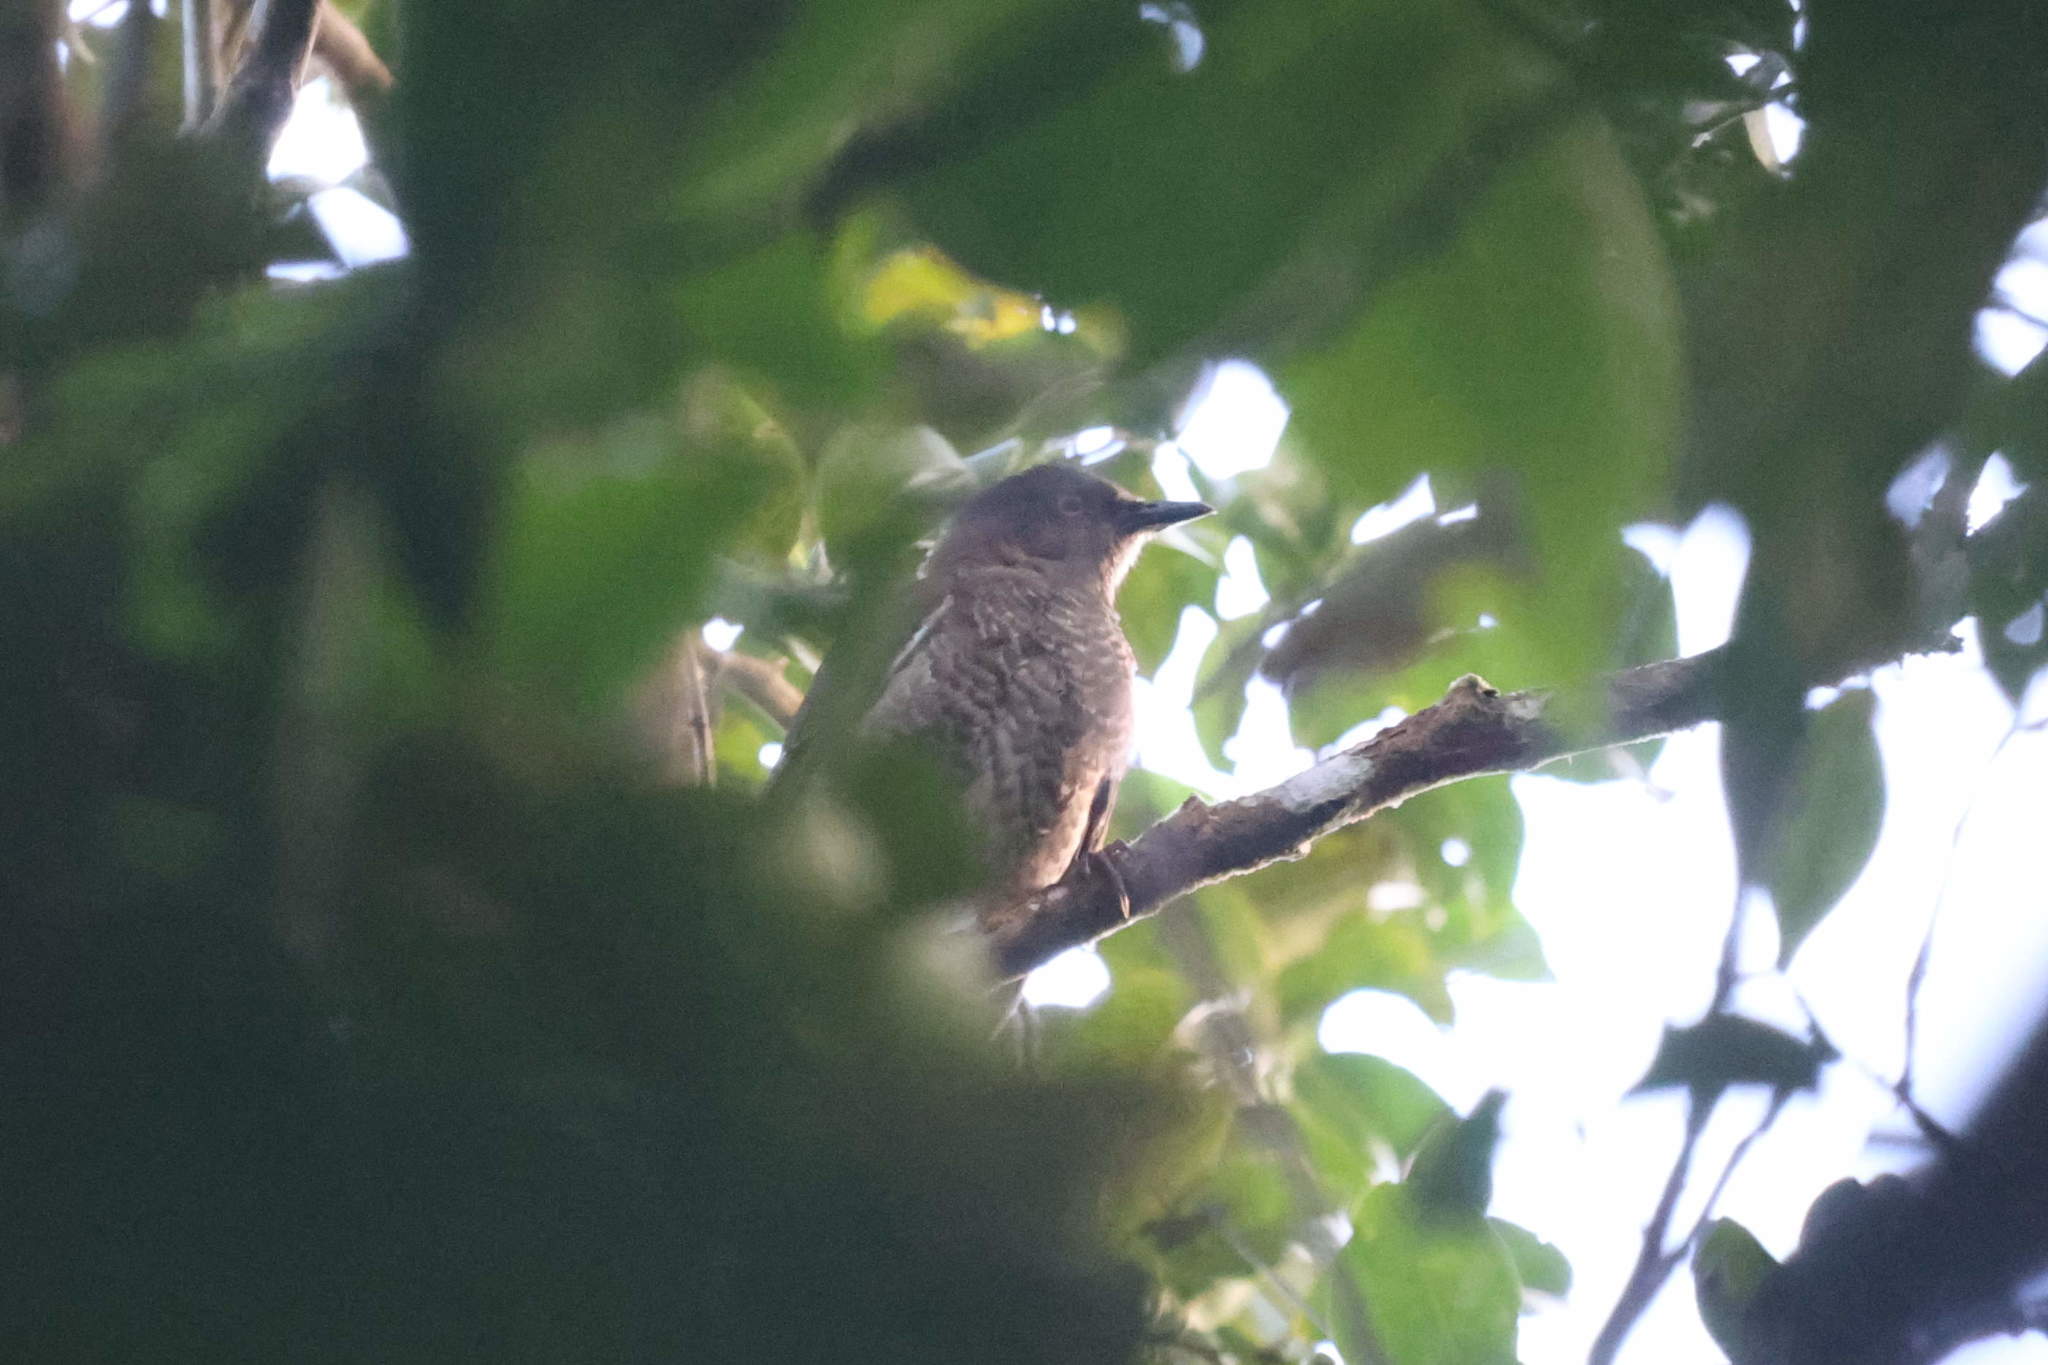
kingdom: Animalia
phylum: Chordata
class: Aves
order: Passeriformes
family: Mimidae
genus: Allenia
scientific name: Allenia fusca
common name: Scaly-breasted thrasher
